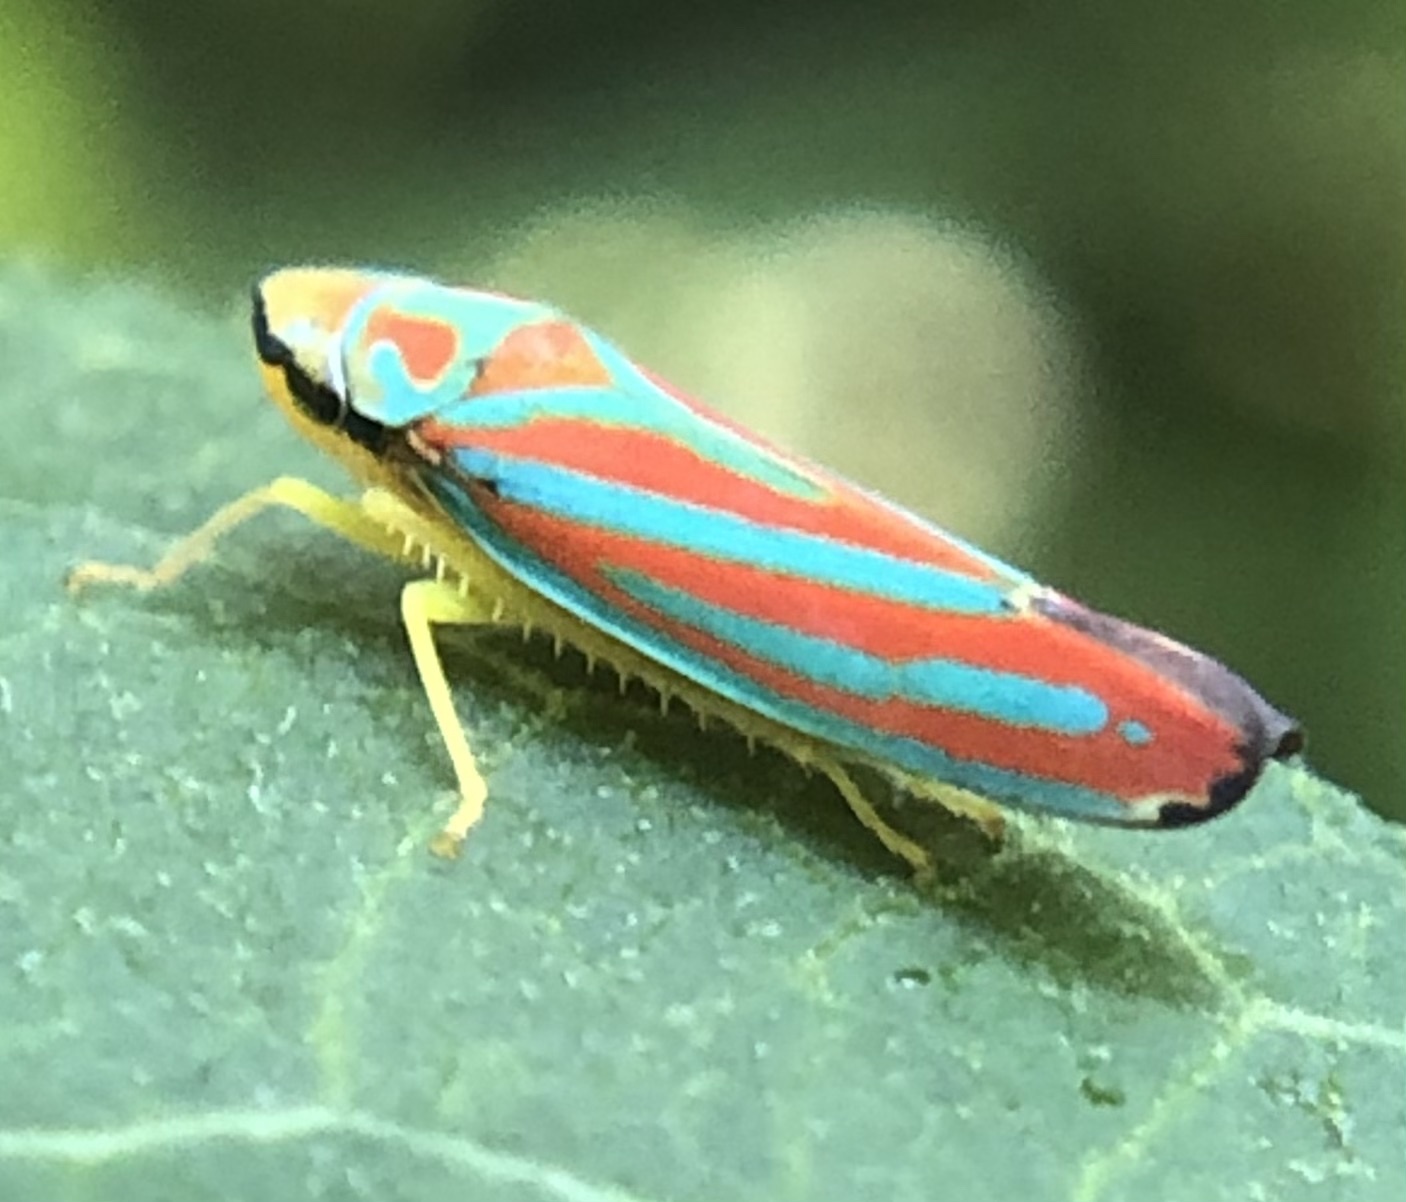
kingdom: Animalia
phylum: Arthropoda
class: Insecta
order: Hemiptera
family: Cicadellidae
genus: Graphocephala
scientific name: Graphocephala coccinea
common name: Candy-striped leafhopper
